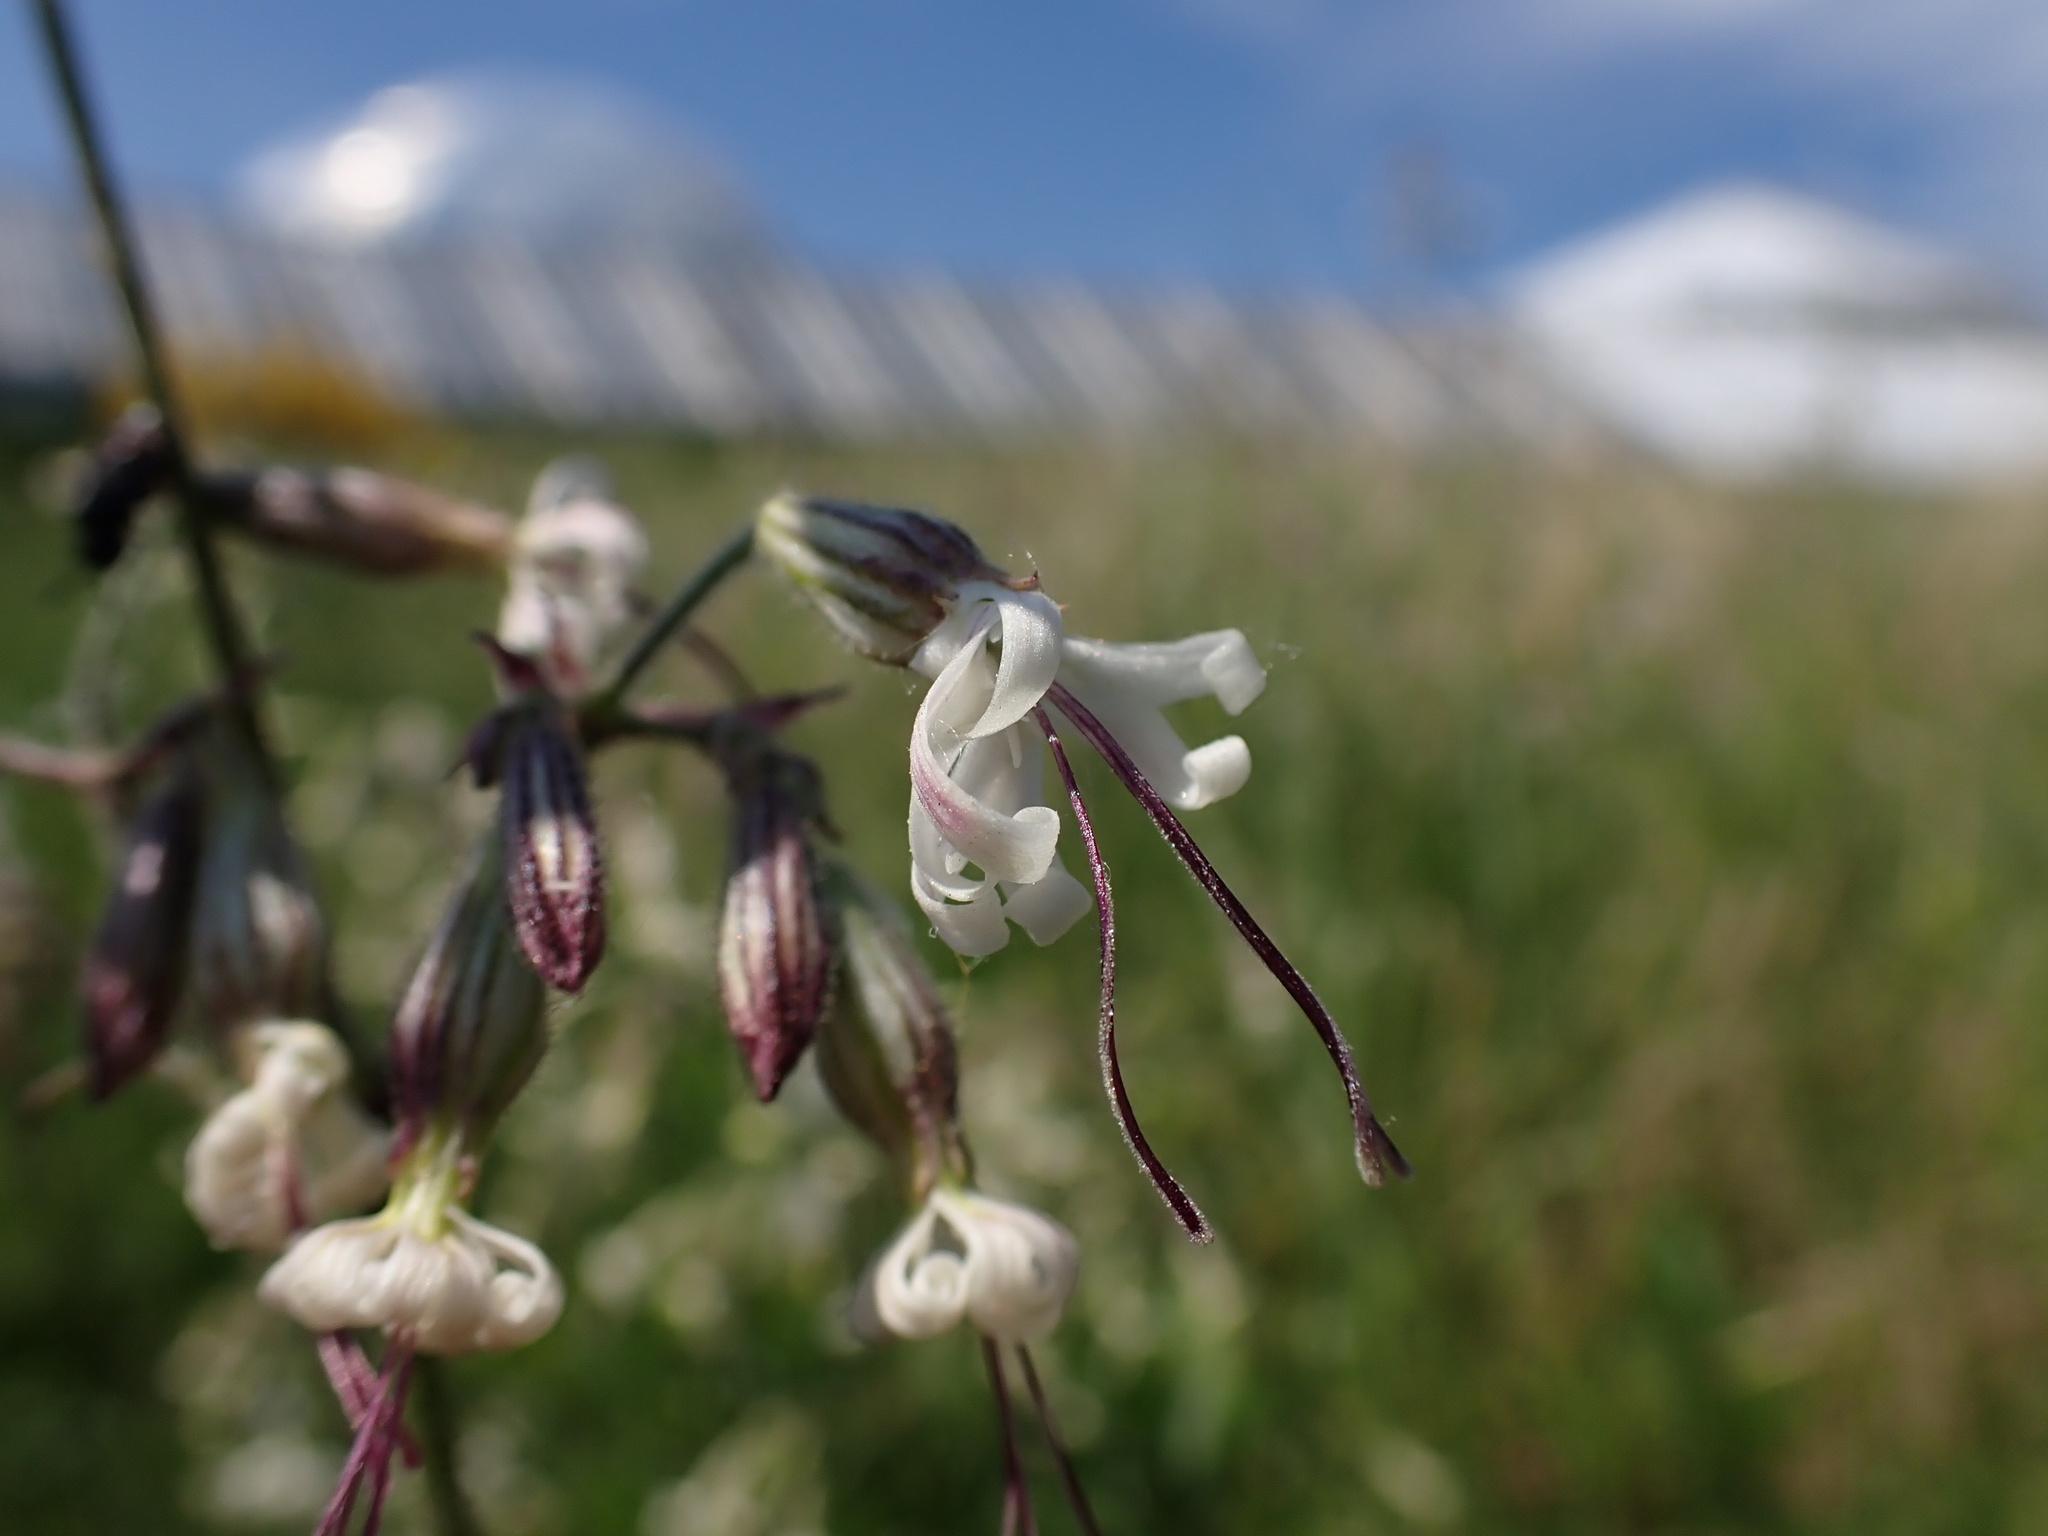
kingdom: Plantae
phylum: Tracheophyta
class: Magnoliopsida
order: Caryophyllales
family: Caryophyllaceae
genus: Silene
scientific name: Silene nutans
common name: Nottingham catchfly
